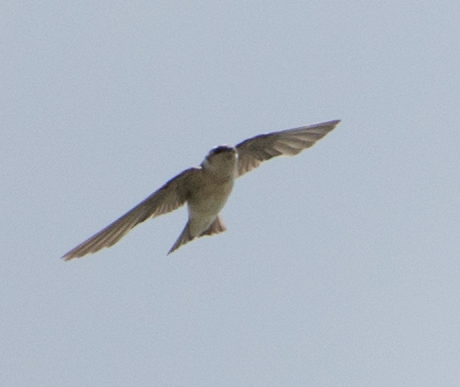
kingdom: Animalia
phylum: Chordata
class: Aves
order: Passeriformes
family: Hirundinidae
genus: Tachycineta
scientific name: Tachycineta bicolor
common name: Tree swallow
